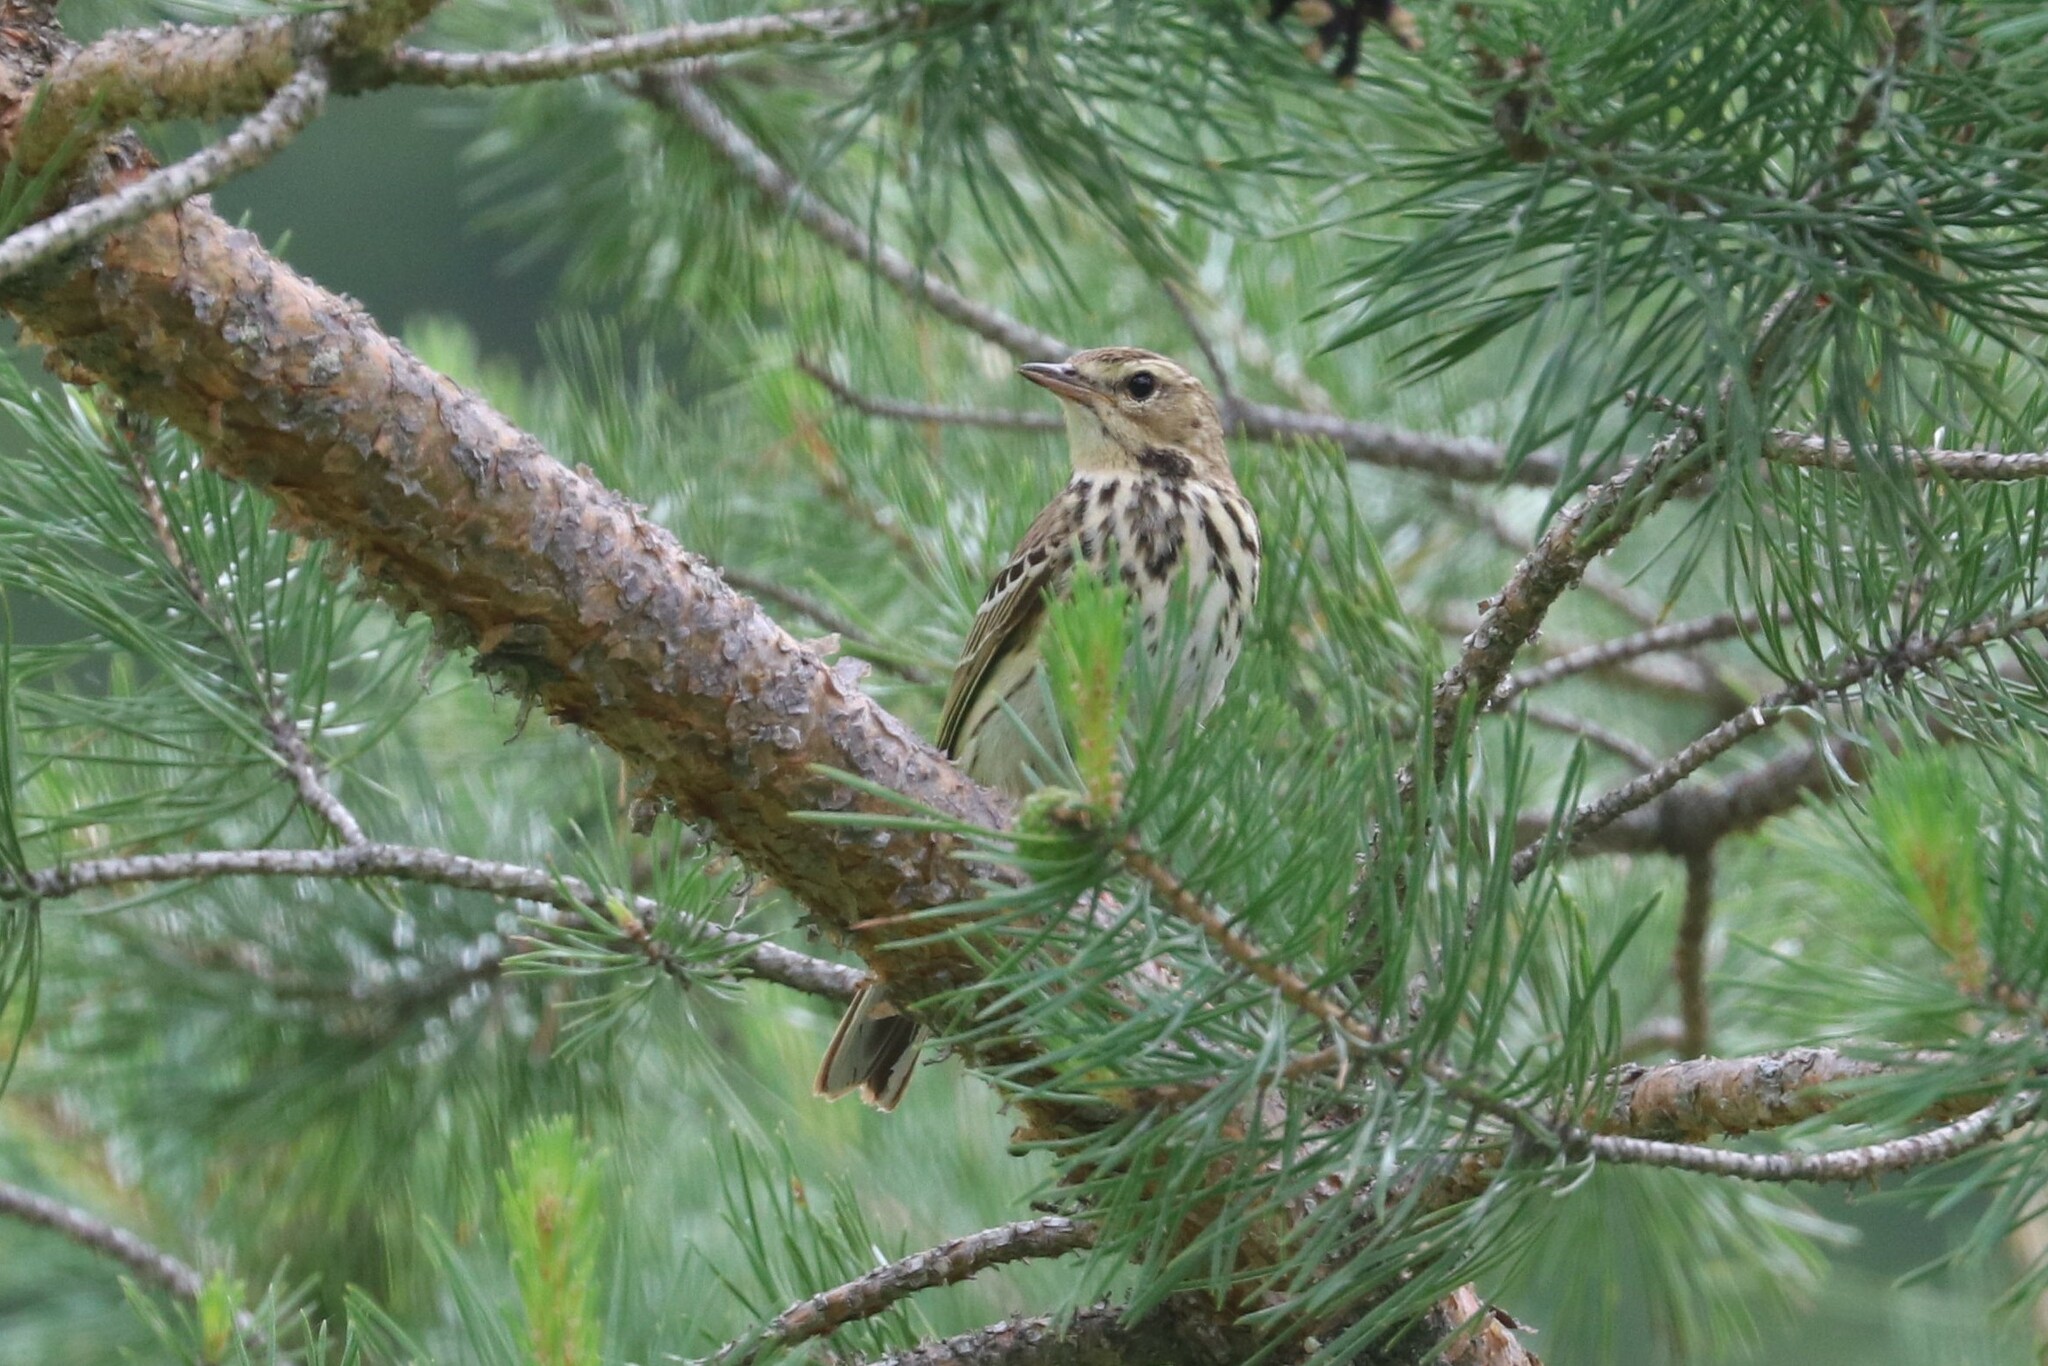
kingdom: Animalia
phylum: Chordata
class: Aves
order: Passeriformes
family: Motacillidae
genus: Anthus
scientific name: Anthus trivialis
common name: Tree pipit
